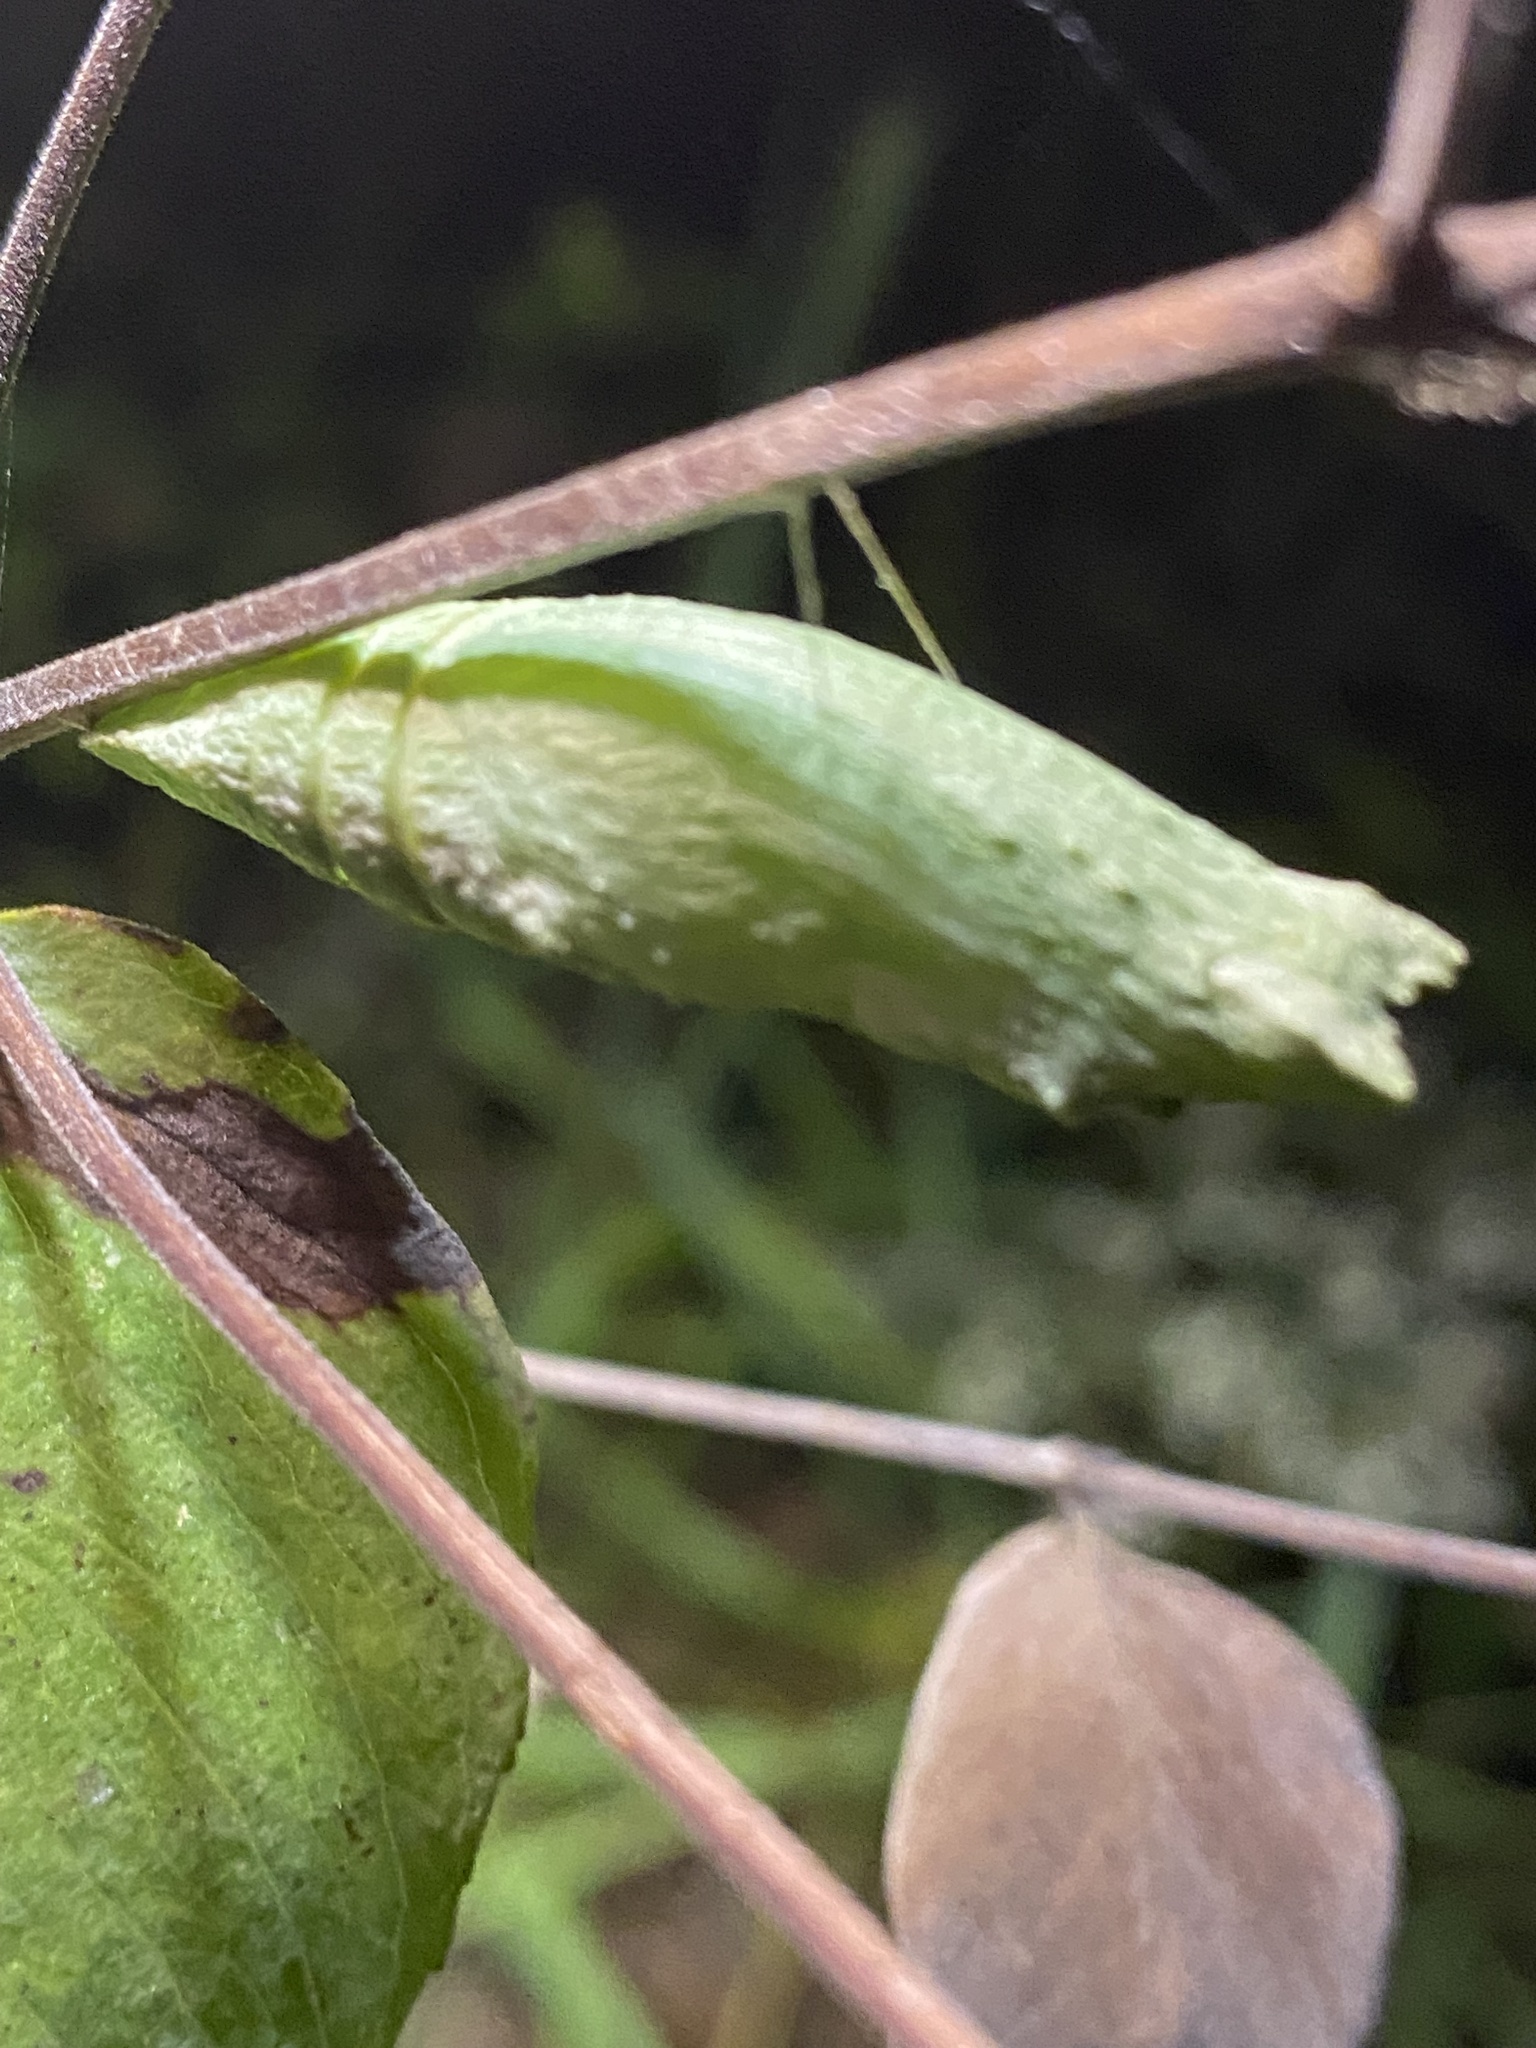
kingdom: Animalia
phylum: Arthropoda
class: Insecta
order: Lepidoptera
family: Papilionidae
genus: Papilio
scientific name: Papilio polyxenes
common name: Black swallowtail
